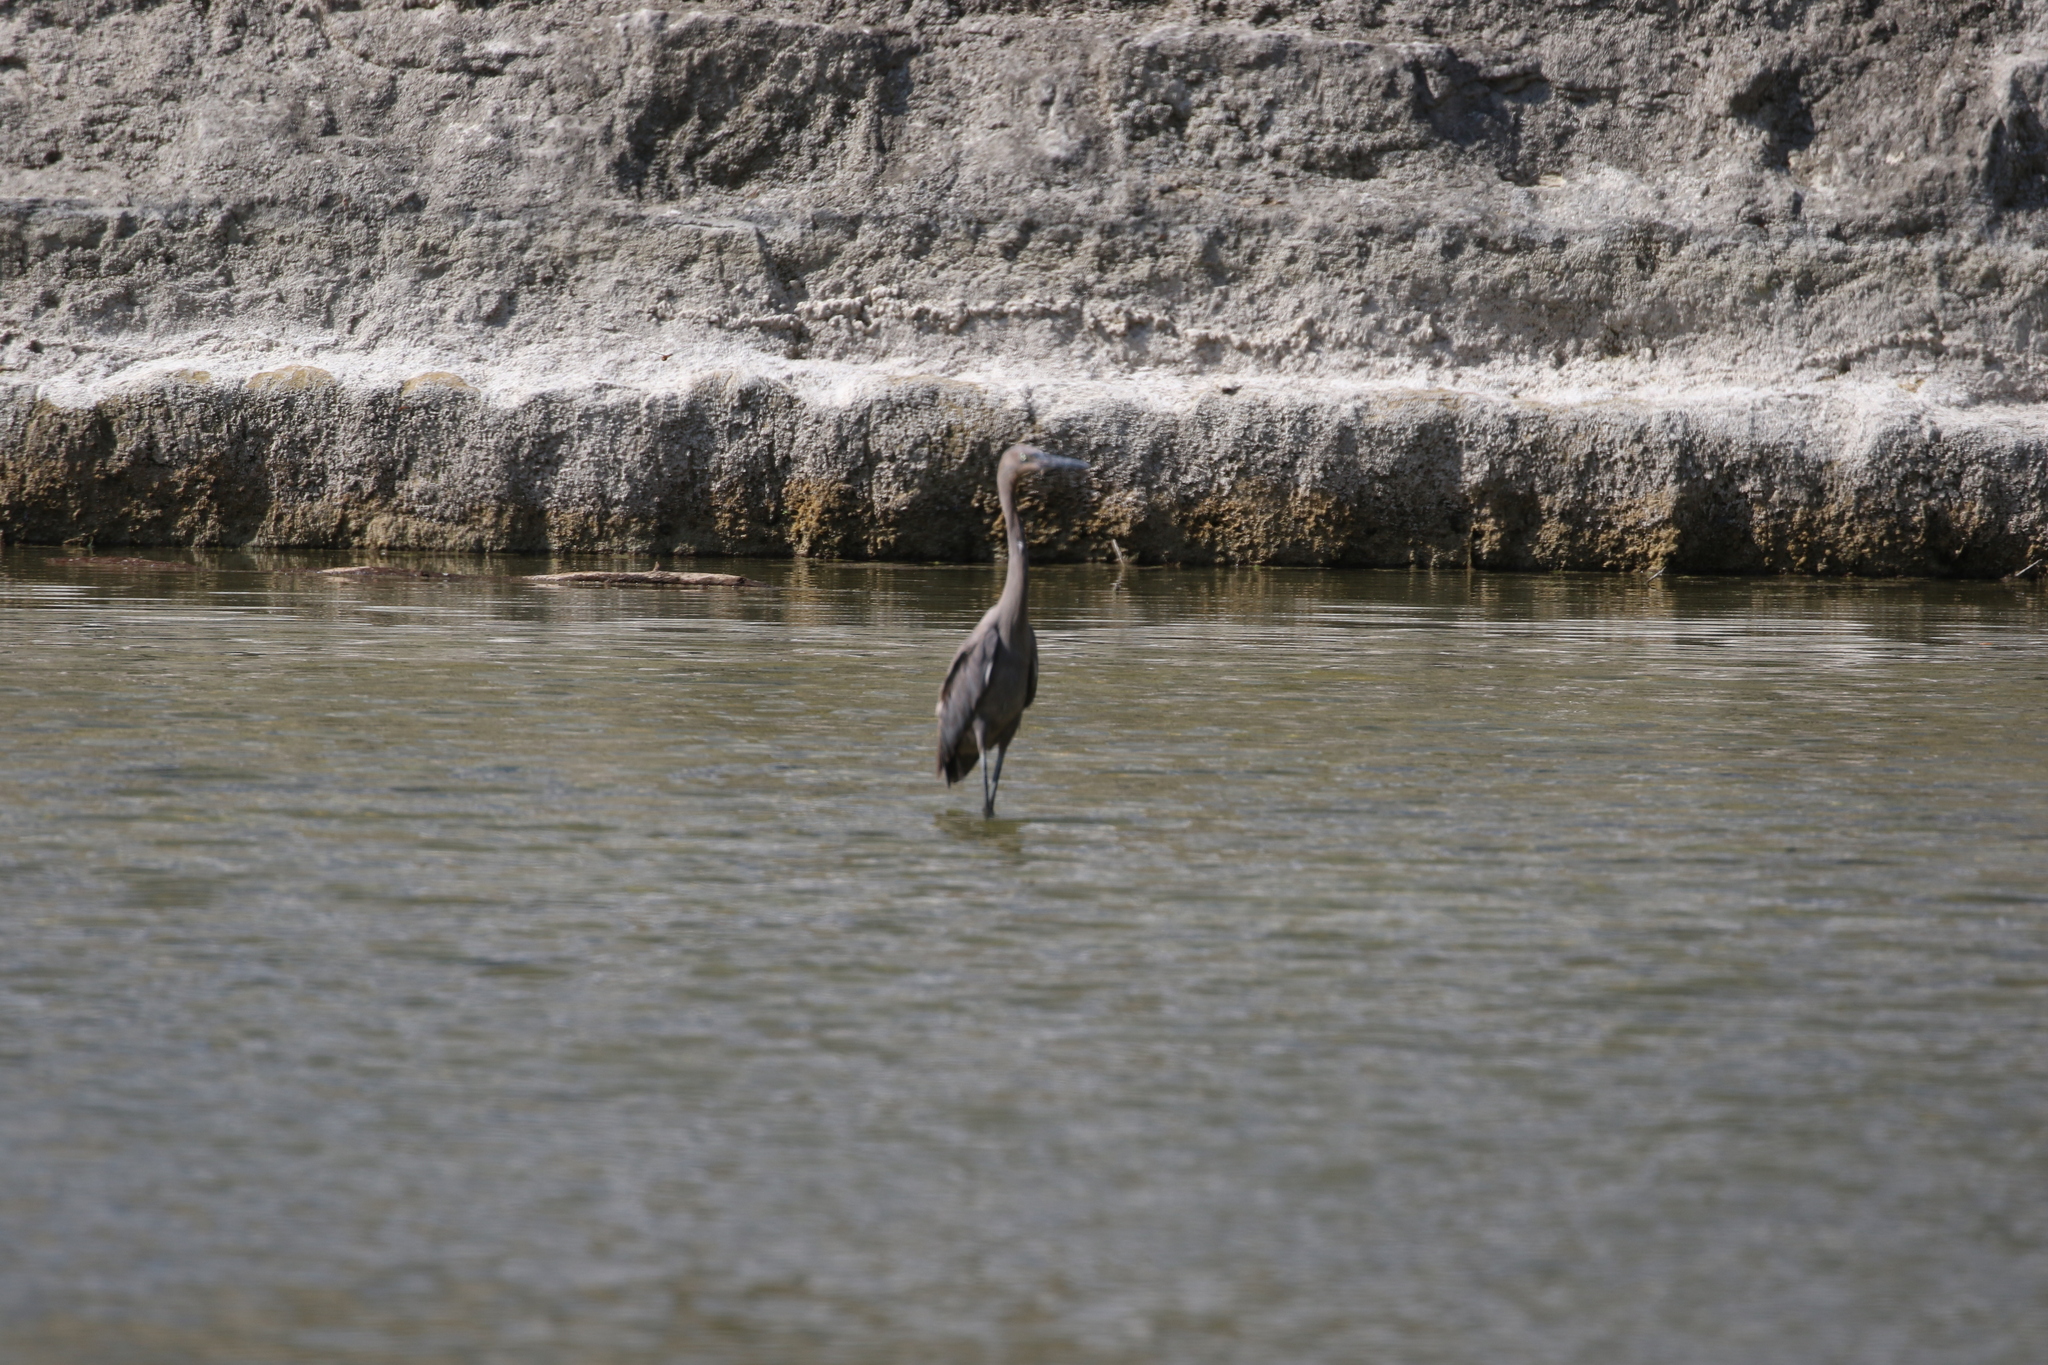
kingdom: Animalia
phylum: Chordata
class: Aves
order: Pelecaniformes
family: Ardeidae
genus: Egretta
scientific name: Egretta rufescens
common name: Reddish egret
